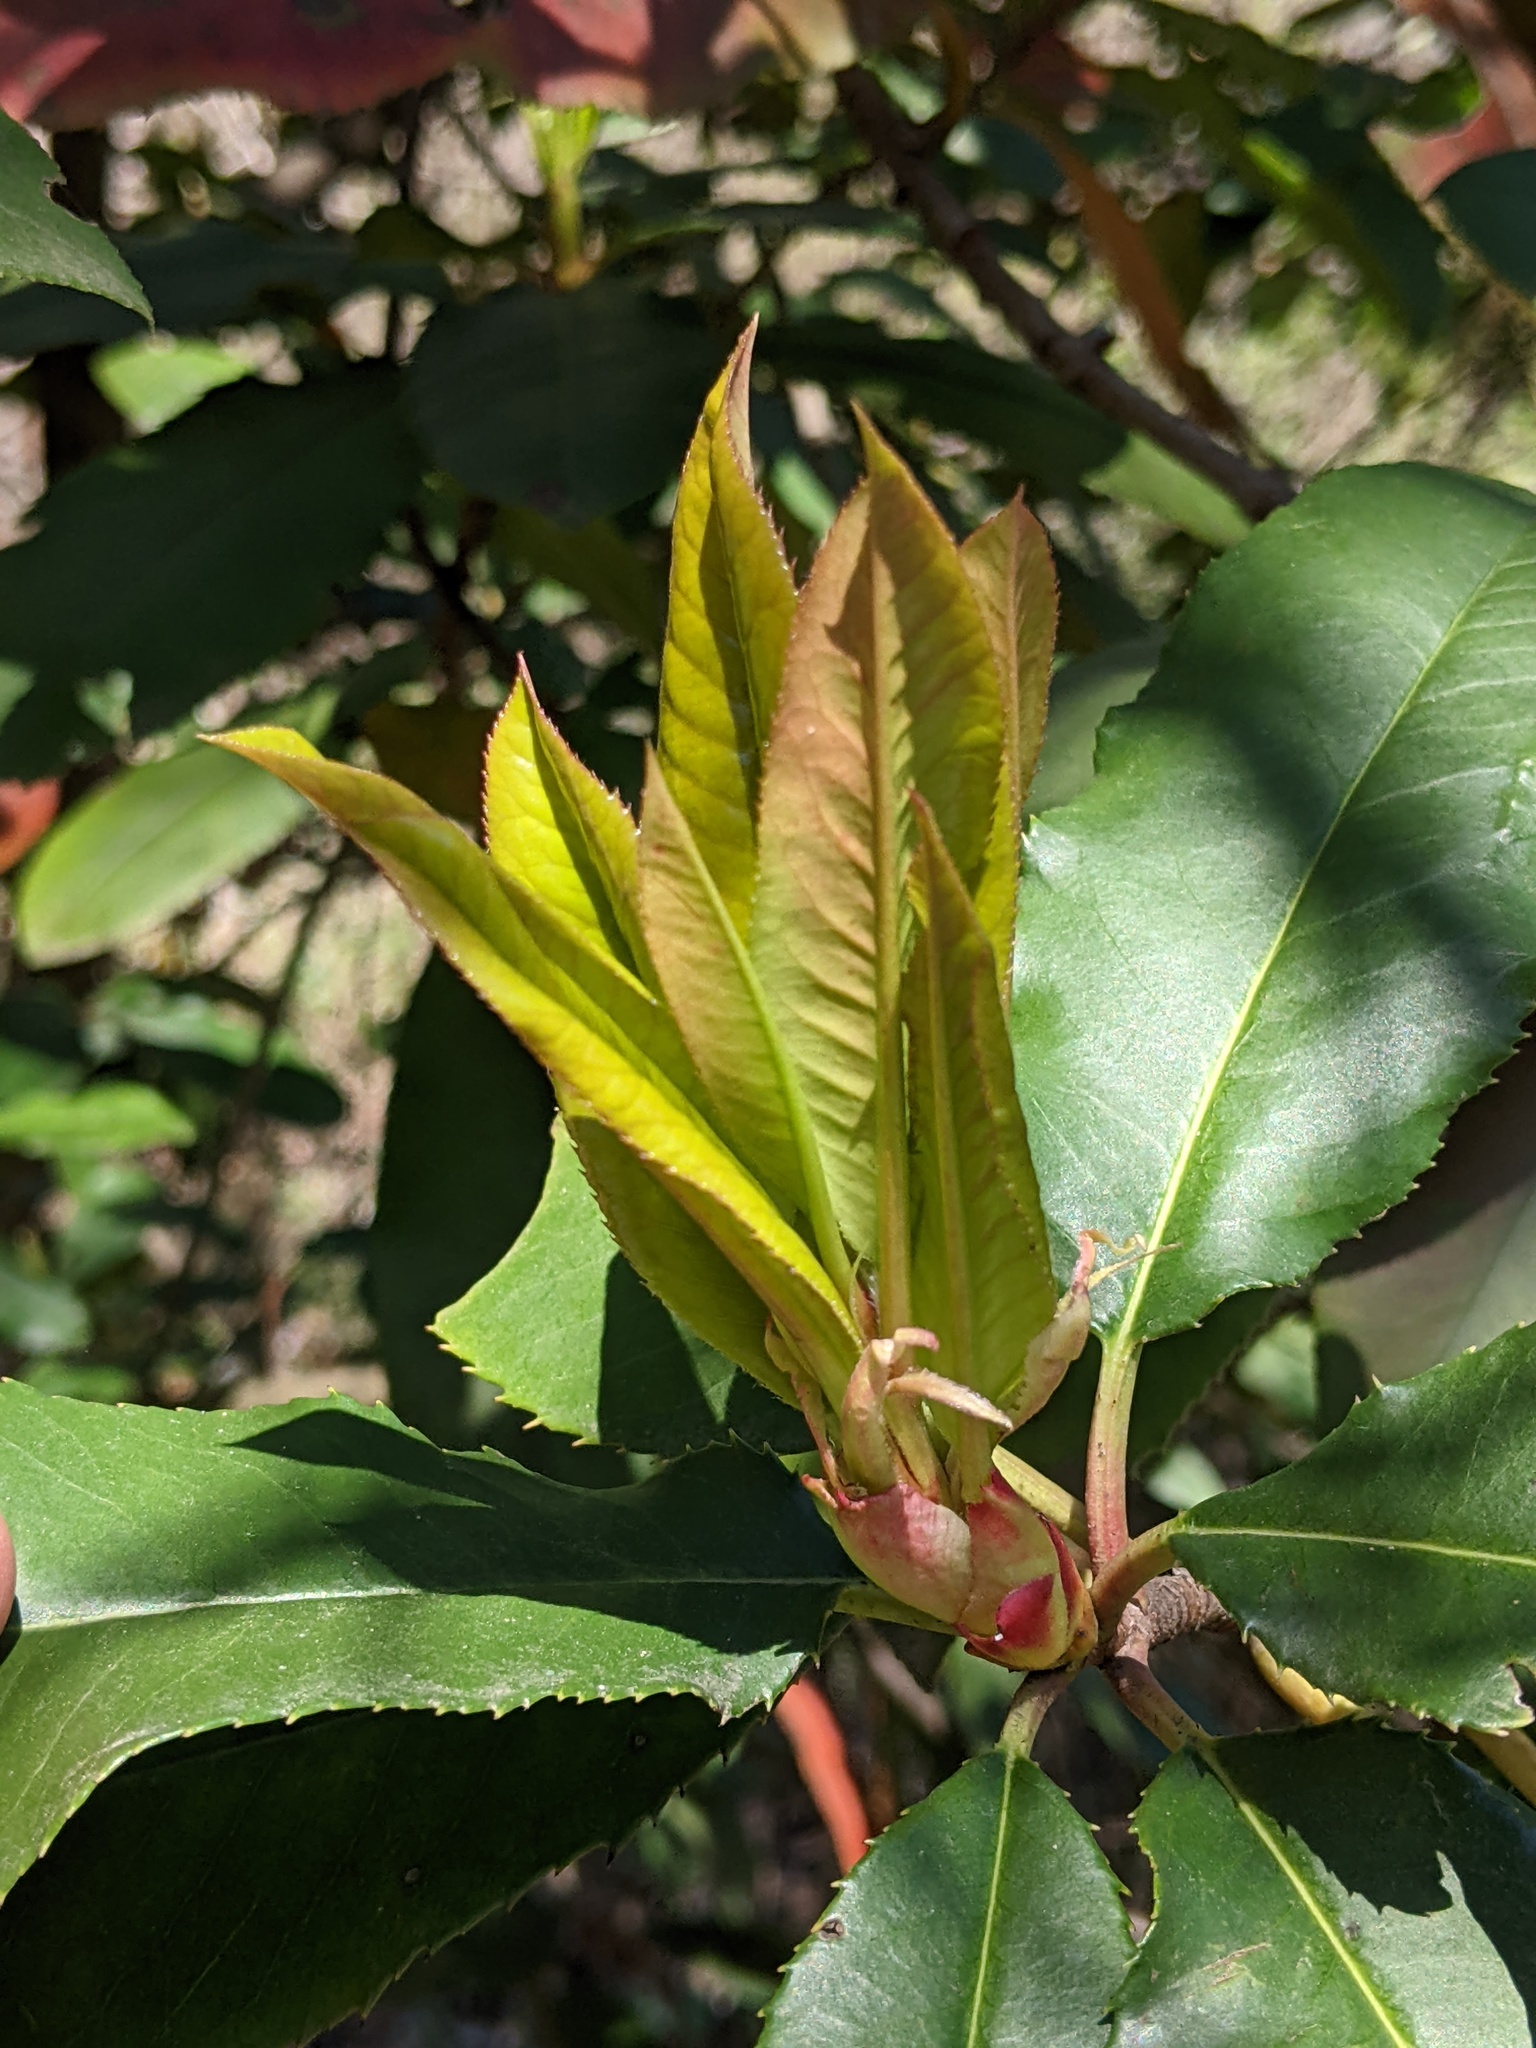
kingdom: Plantae
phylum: Tracheophyta
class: Magnoliopsida
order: Rosales
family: Rosaceae
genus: Photinia
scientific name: Photinia serratifolia
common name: Taiwanese photinia
